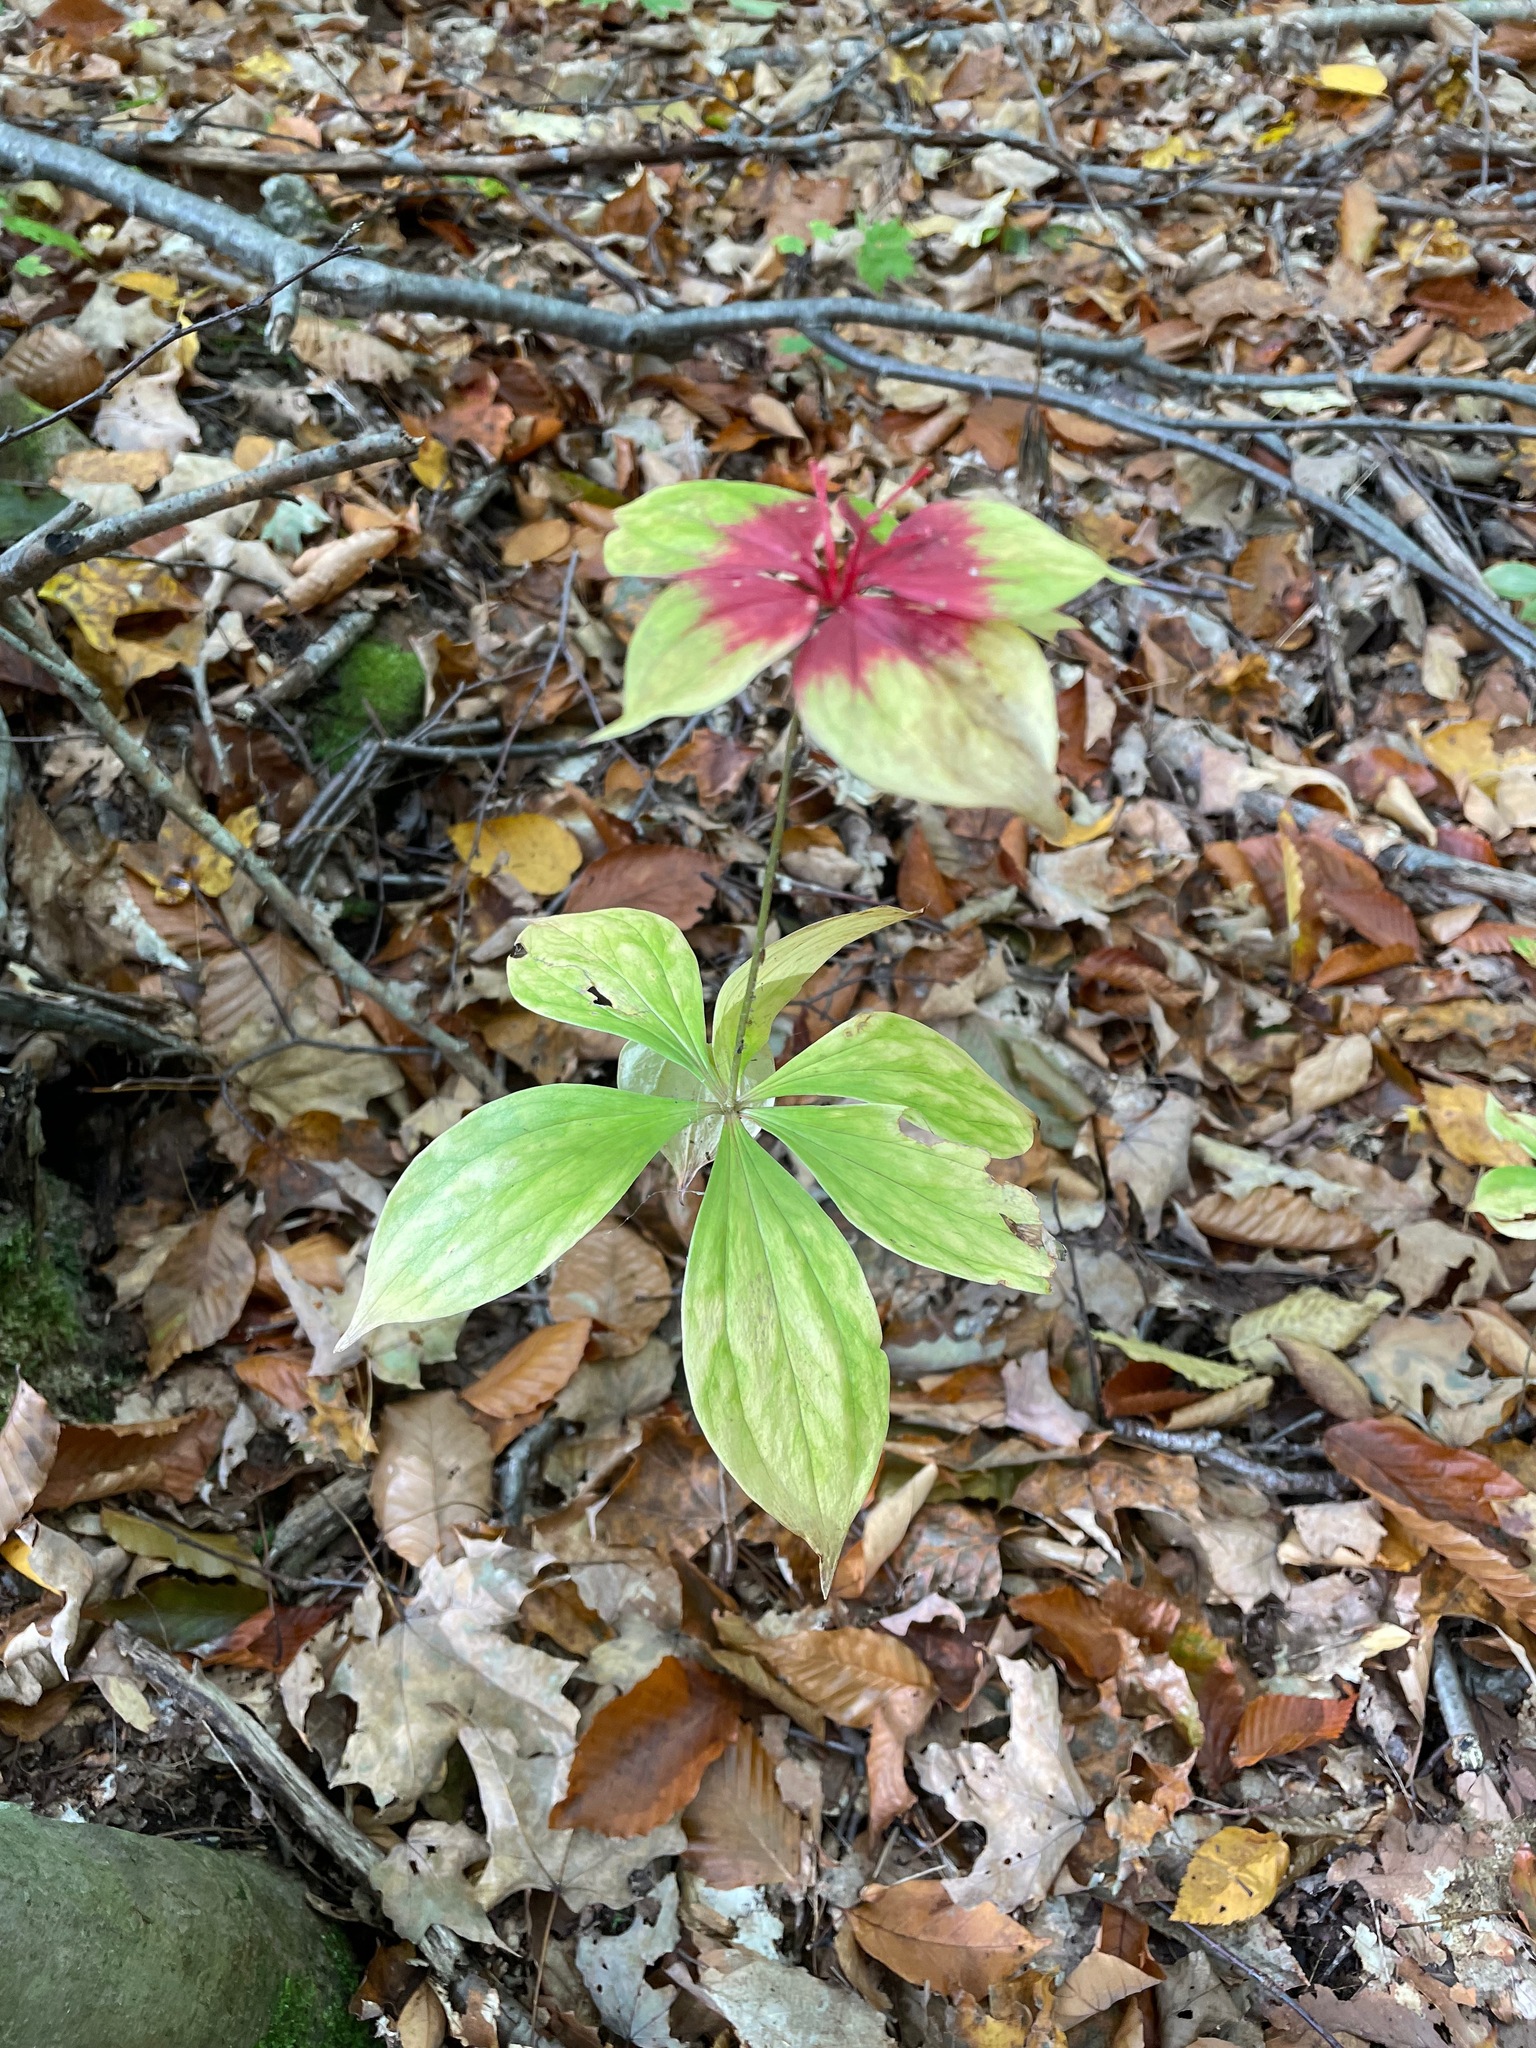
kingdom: Plantae
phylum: Tracheophyta
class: Liliopsida
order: Liliales
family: Liliaceae
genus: Medeola
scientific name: Medeola virginiana
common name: Indian cucumber-root
